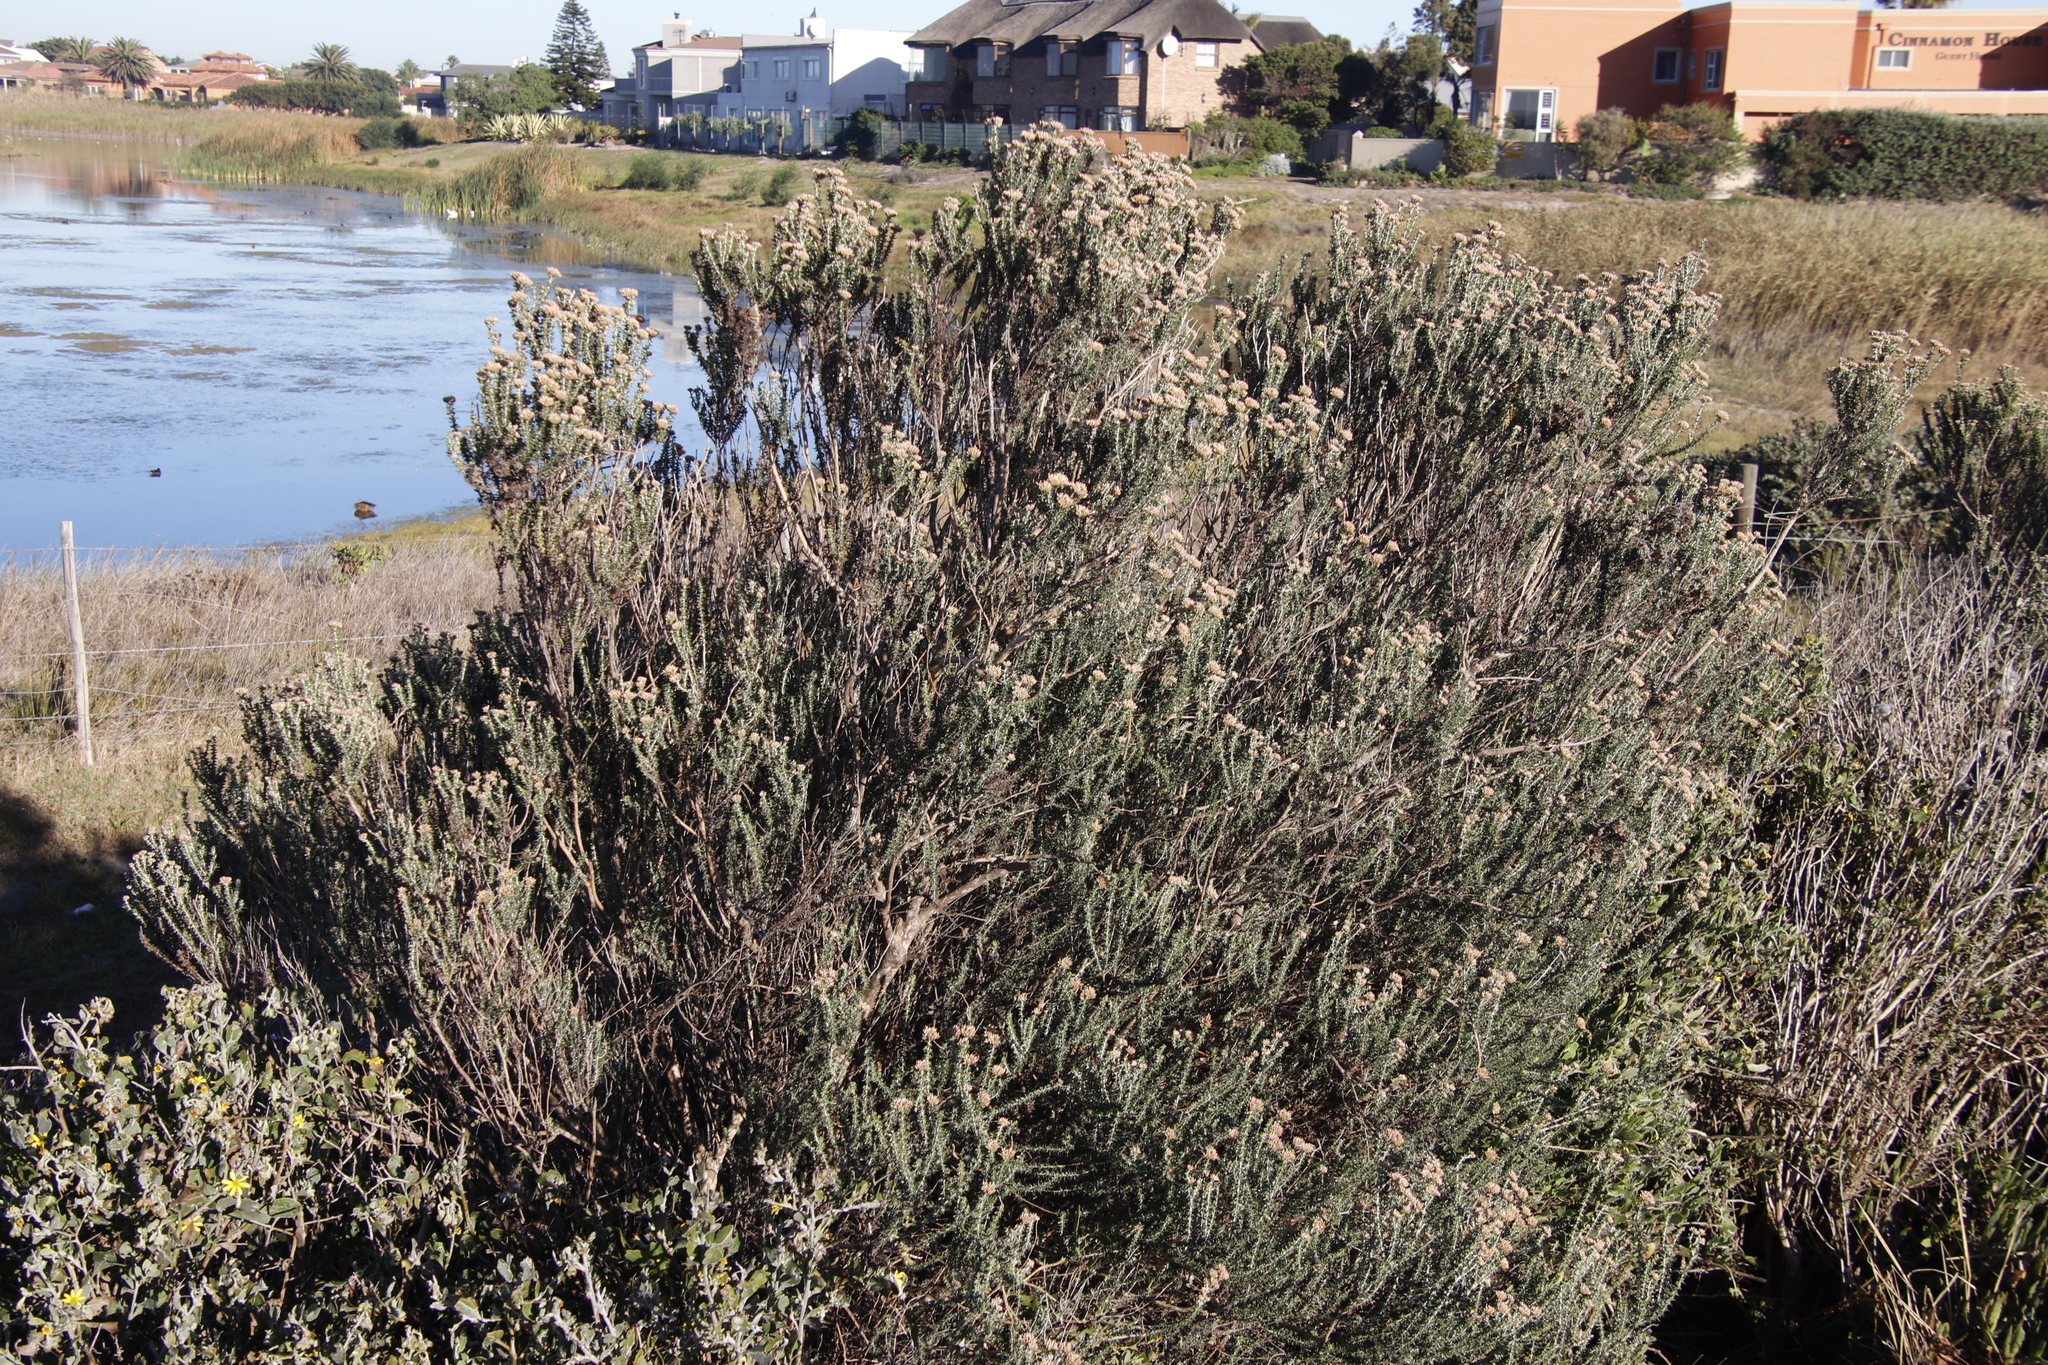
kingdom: Plantae
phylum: Tracheophyta
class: Magnoliopsida
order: Asterales
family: Asteraceae
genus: Metalasia
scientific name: Metalasia muricata
